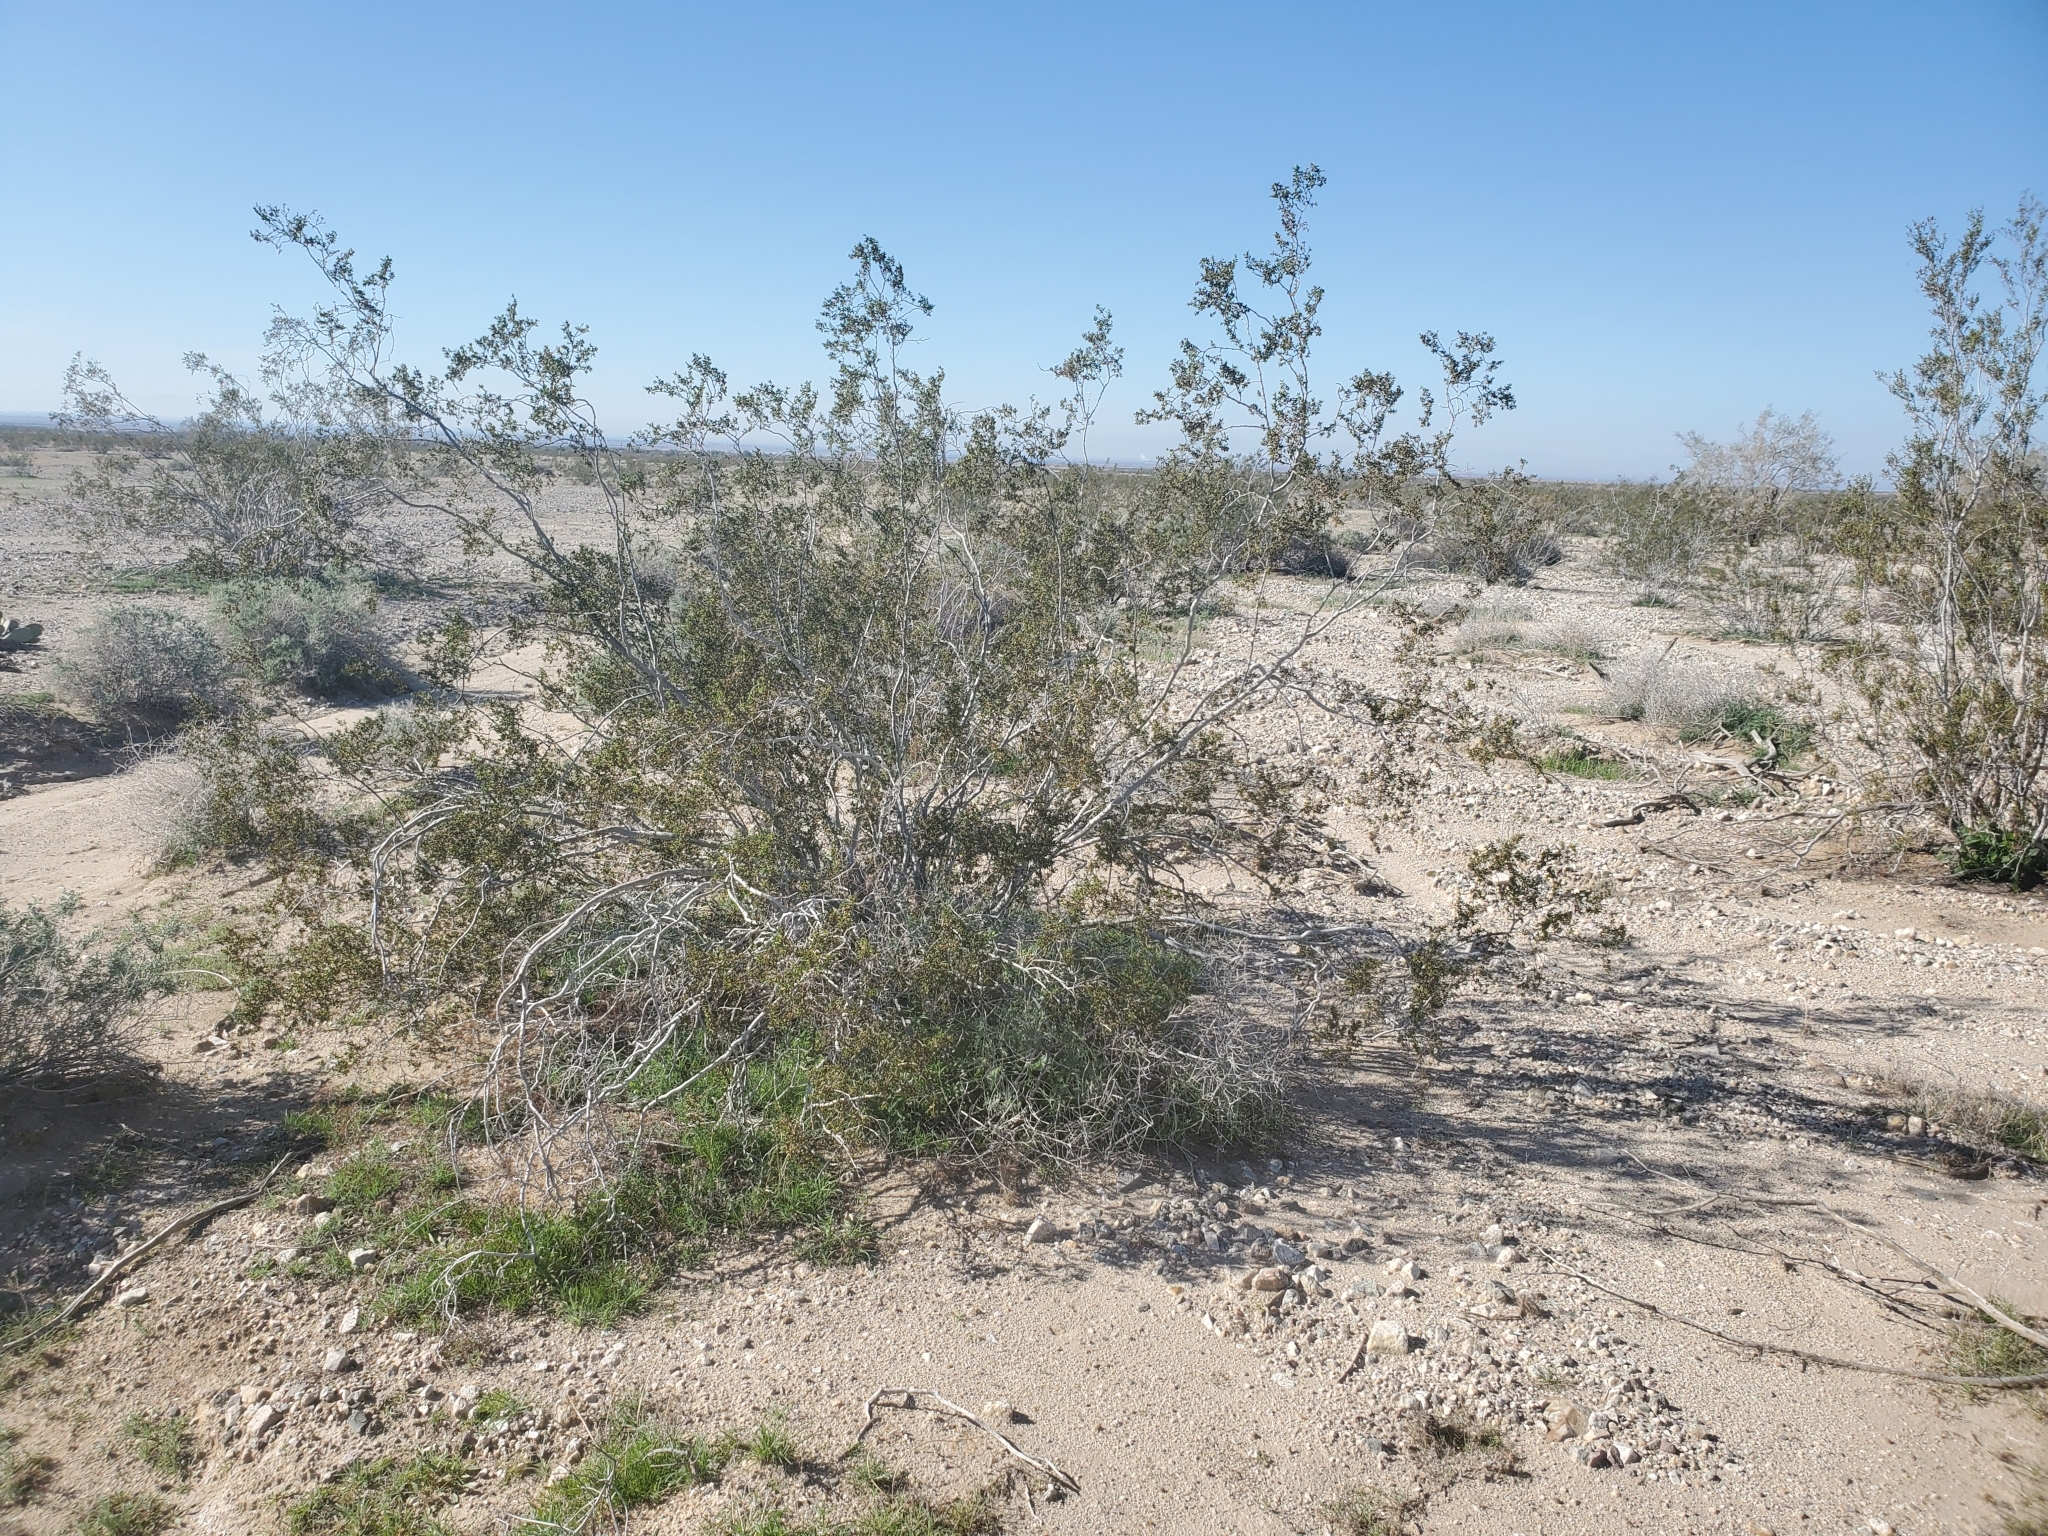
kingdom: Plantae
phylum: Tracheophyta
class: Magnoliopsida
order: Zygophyllales
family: Zygophyllaceae
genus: Larrea
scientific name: Larrea tridentata
